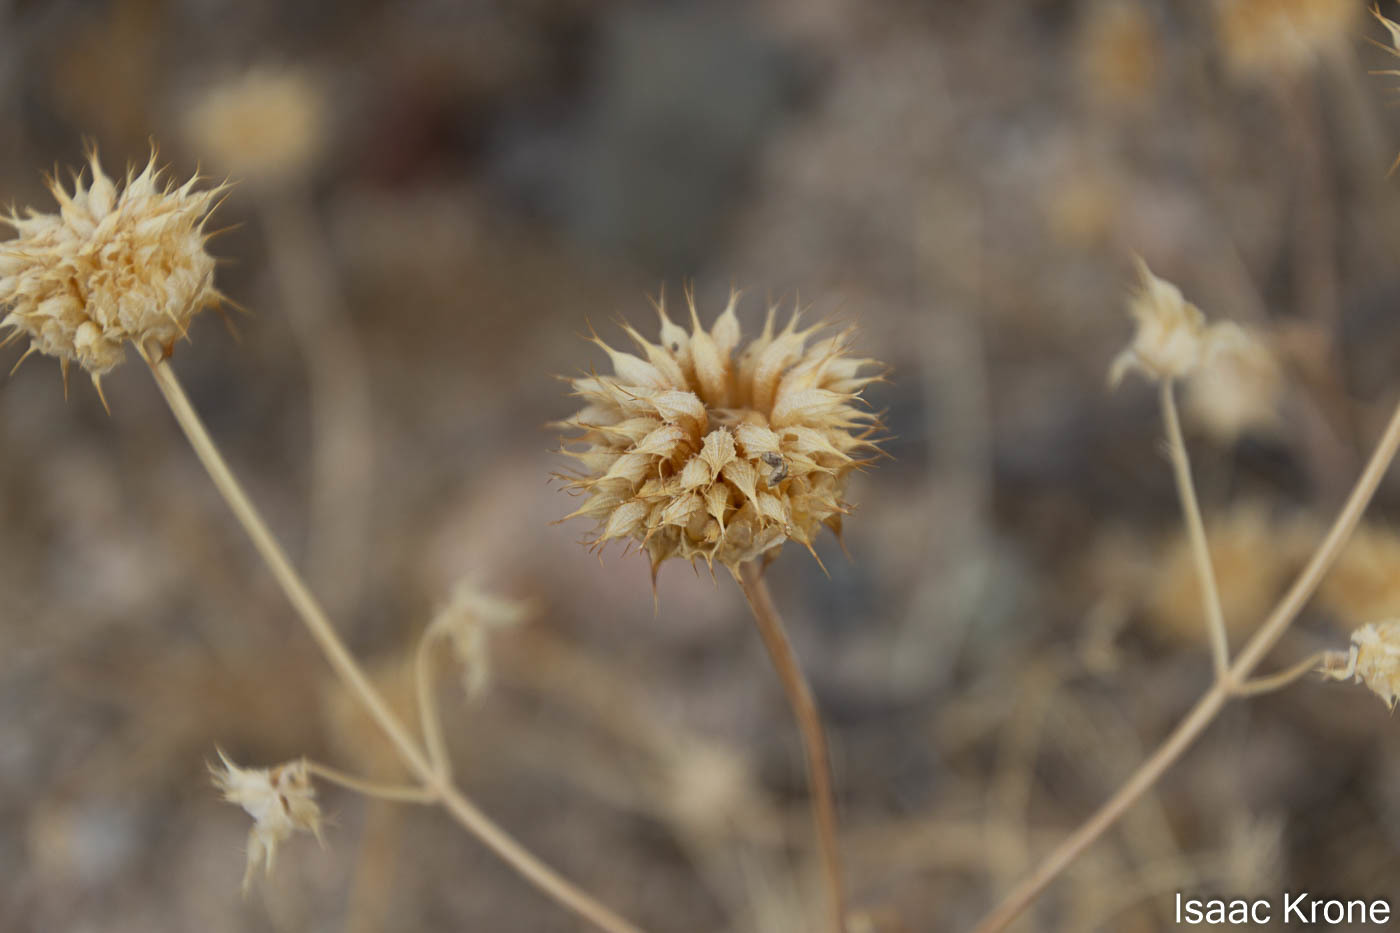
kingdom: Plantae
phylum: Tracheophyta
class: Magnoliopsida
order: Lamiales
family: Lamiaceae
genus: Salvia
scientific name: Salvia columbariae
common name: Chia
